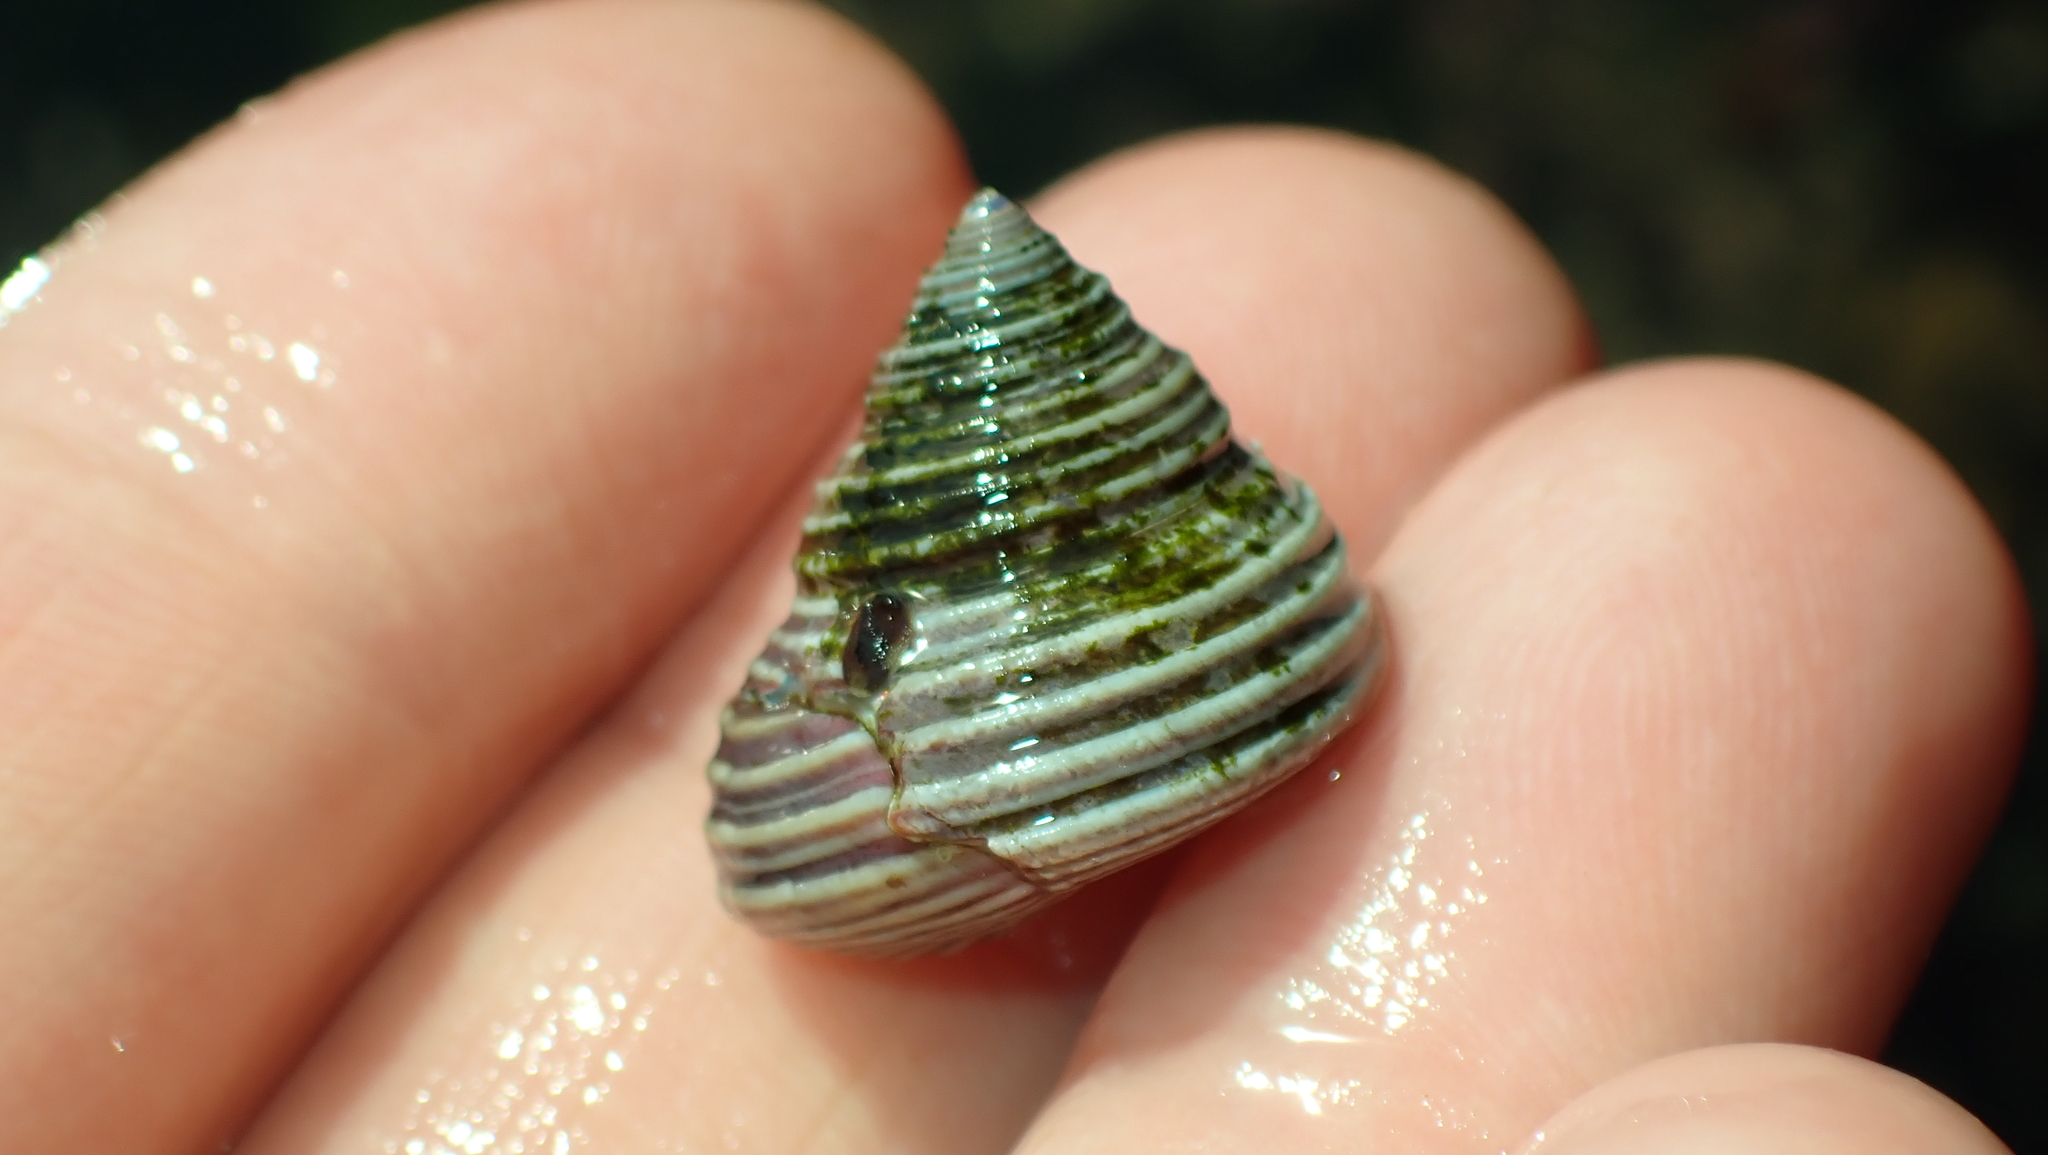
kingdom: Animalia
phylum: Mollusca
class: Gastropoda
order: Trochida
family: Calliostomatidae
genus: Calliostoma
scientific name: Calliostoma ligatum
